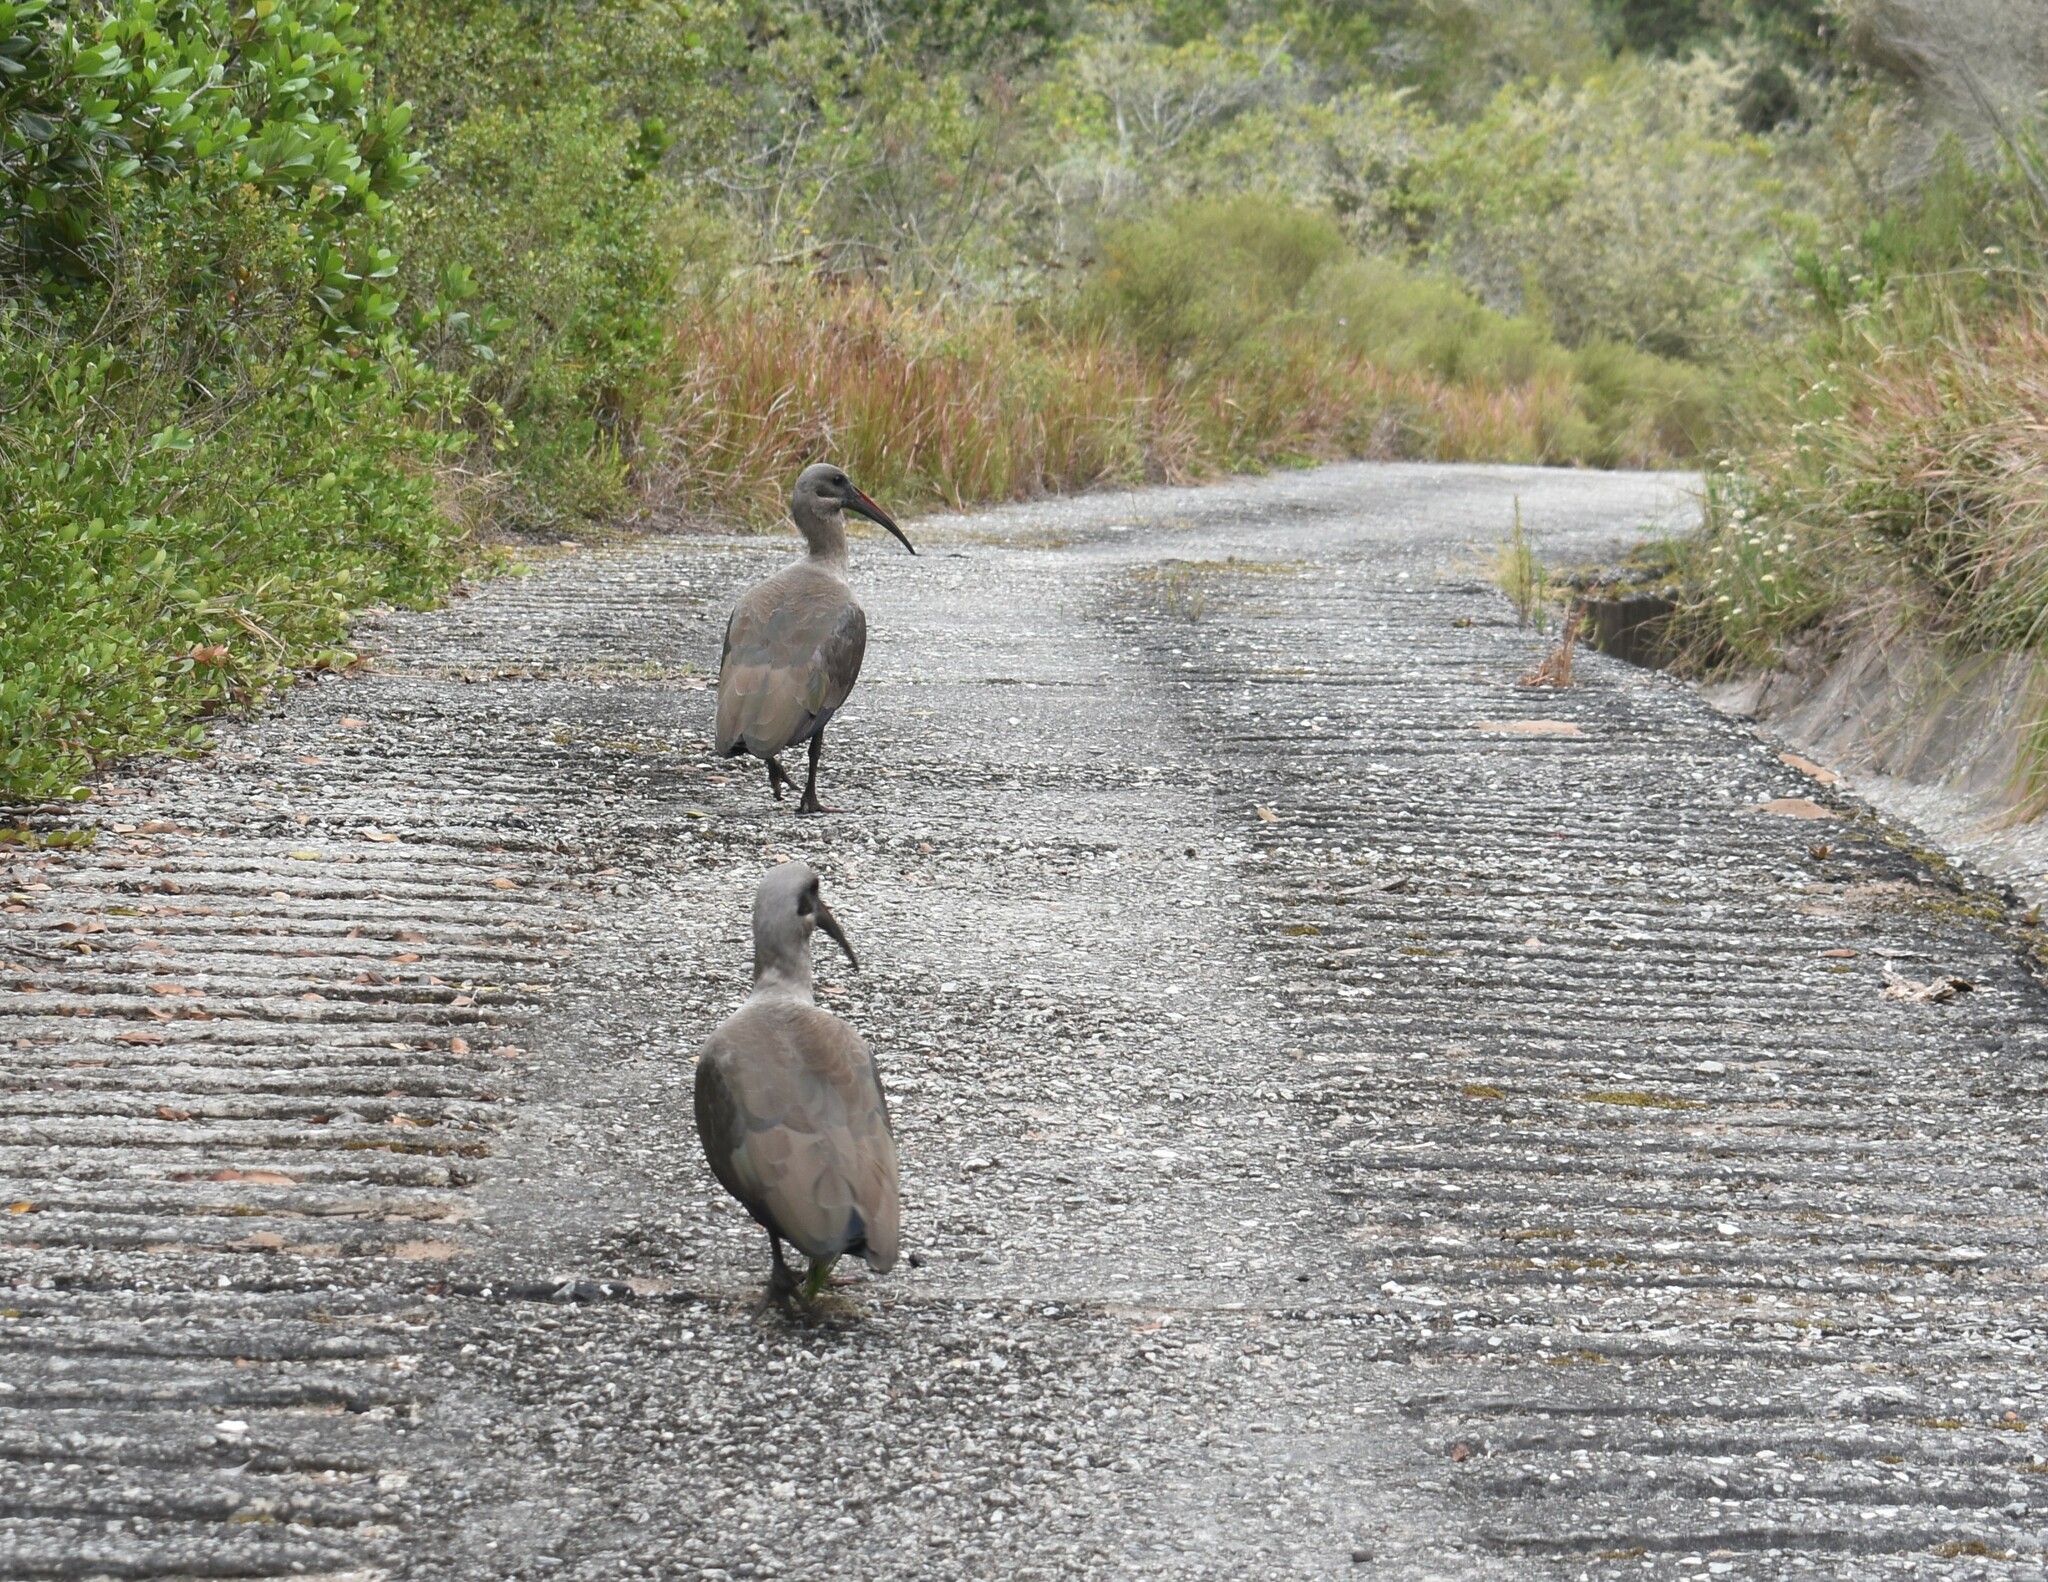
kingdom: Animalia
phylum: Chordata
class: Aves
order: Pelecaniformes
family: Threskiornithidae
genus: Bostrychia
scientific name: Bostrychia hagedash
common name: Hadada ibis
